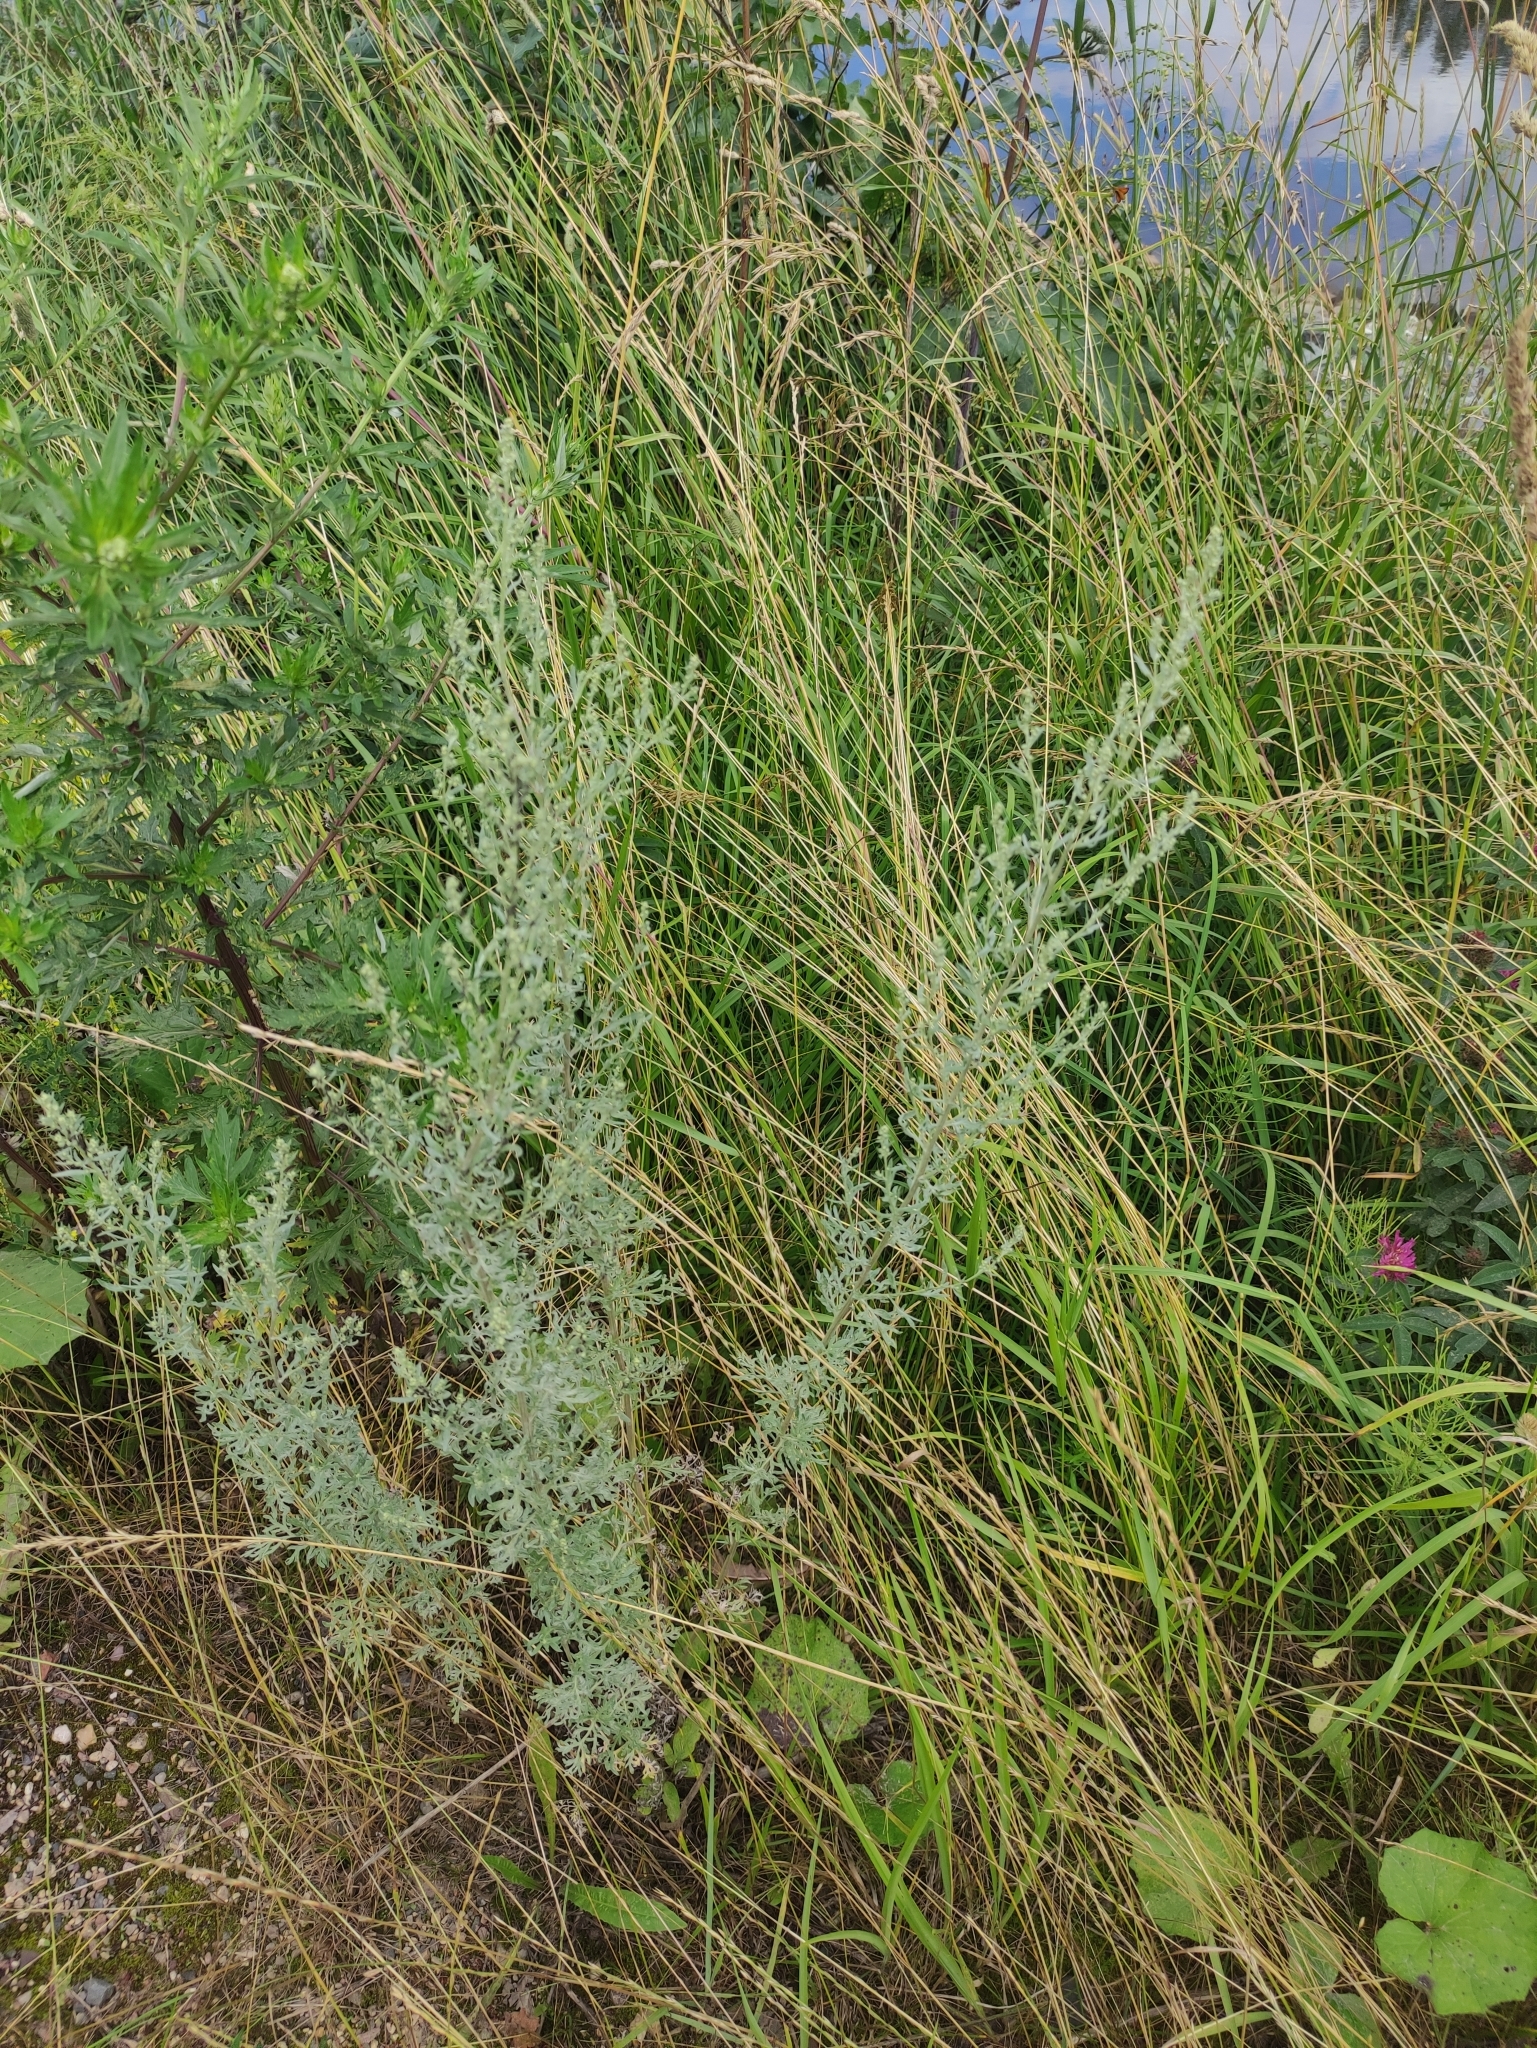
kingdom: Plantae
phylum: Tracheophyta
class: Magnoliopsida
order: Asterales
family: Asteraceae
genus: Artemisia
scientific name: Artemisia absinthium
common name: Wormwood
